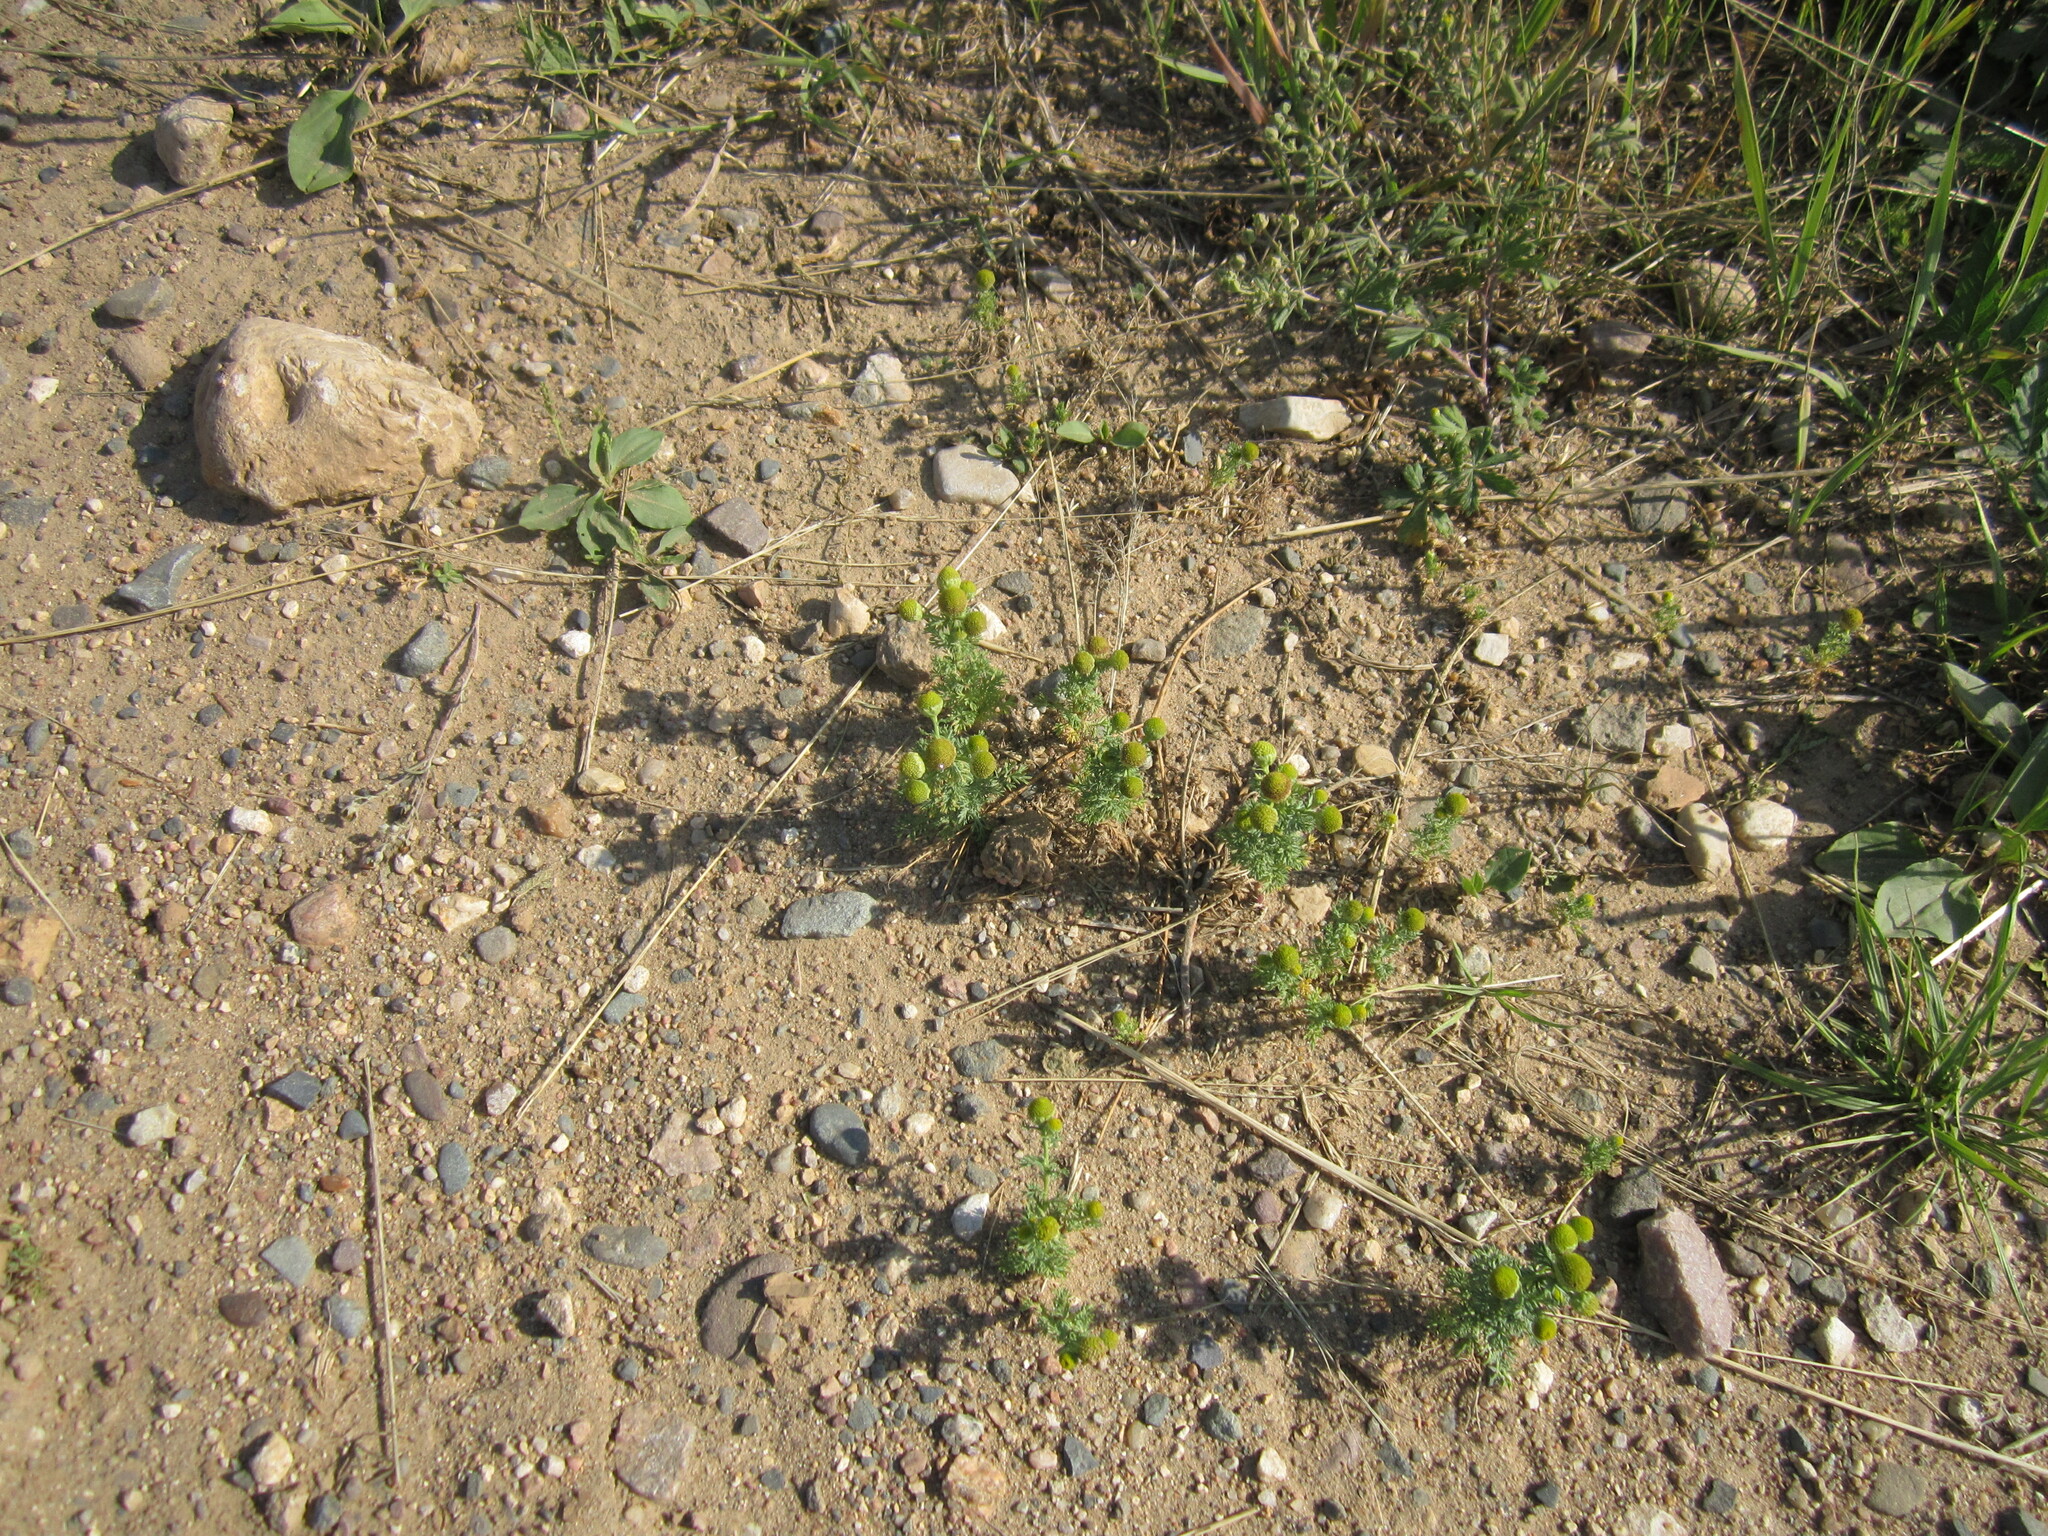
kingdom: Plantae
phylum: Tracheophyta
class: Magnoliopsida
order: Asterales
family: Asteraceae
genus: Matricaria
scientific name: Matricaria discoidea
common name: Disc mayweed
